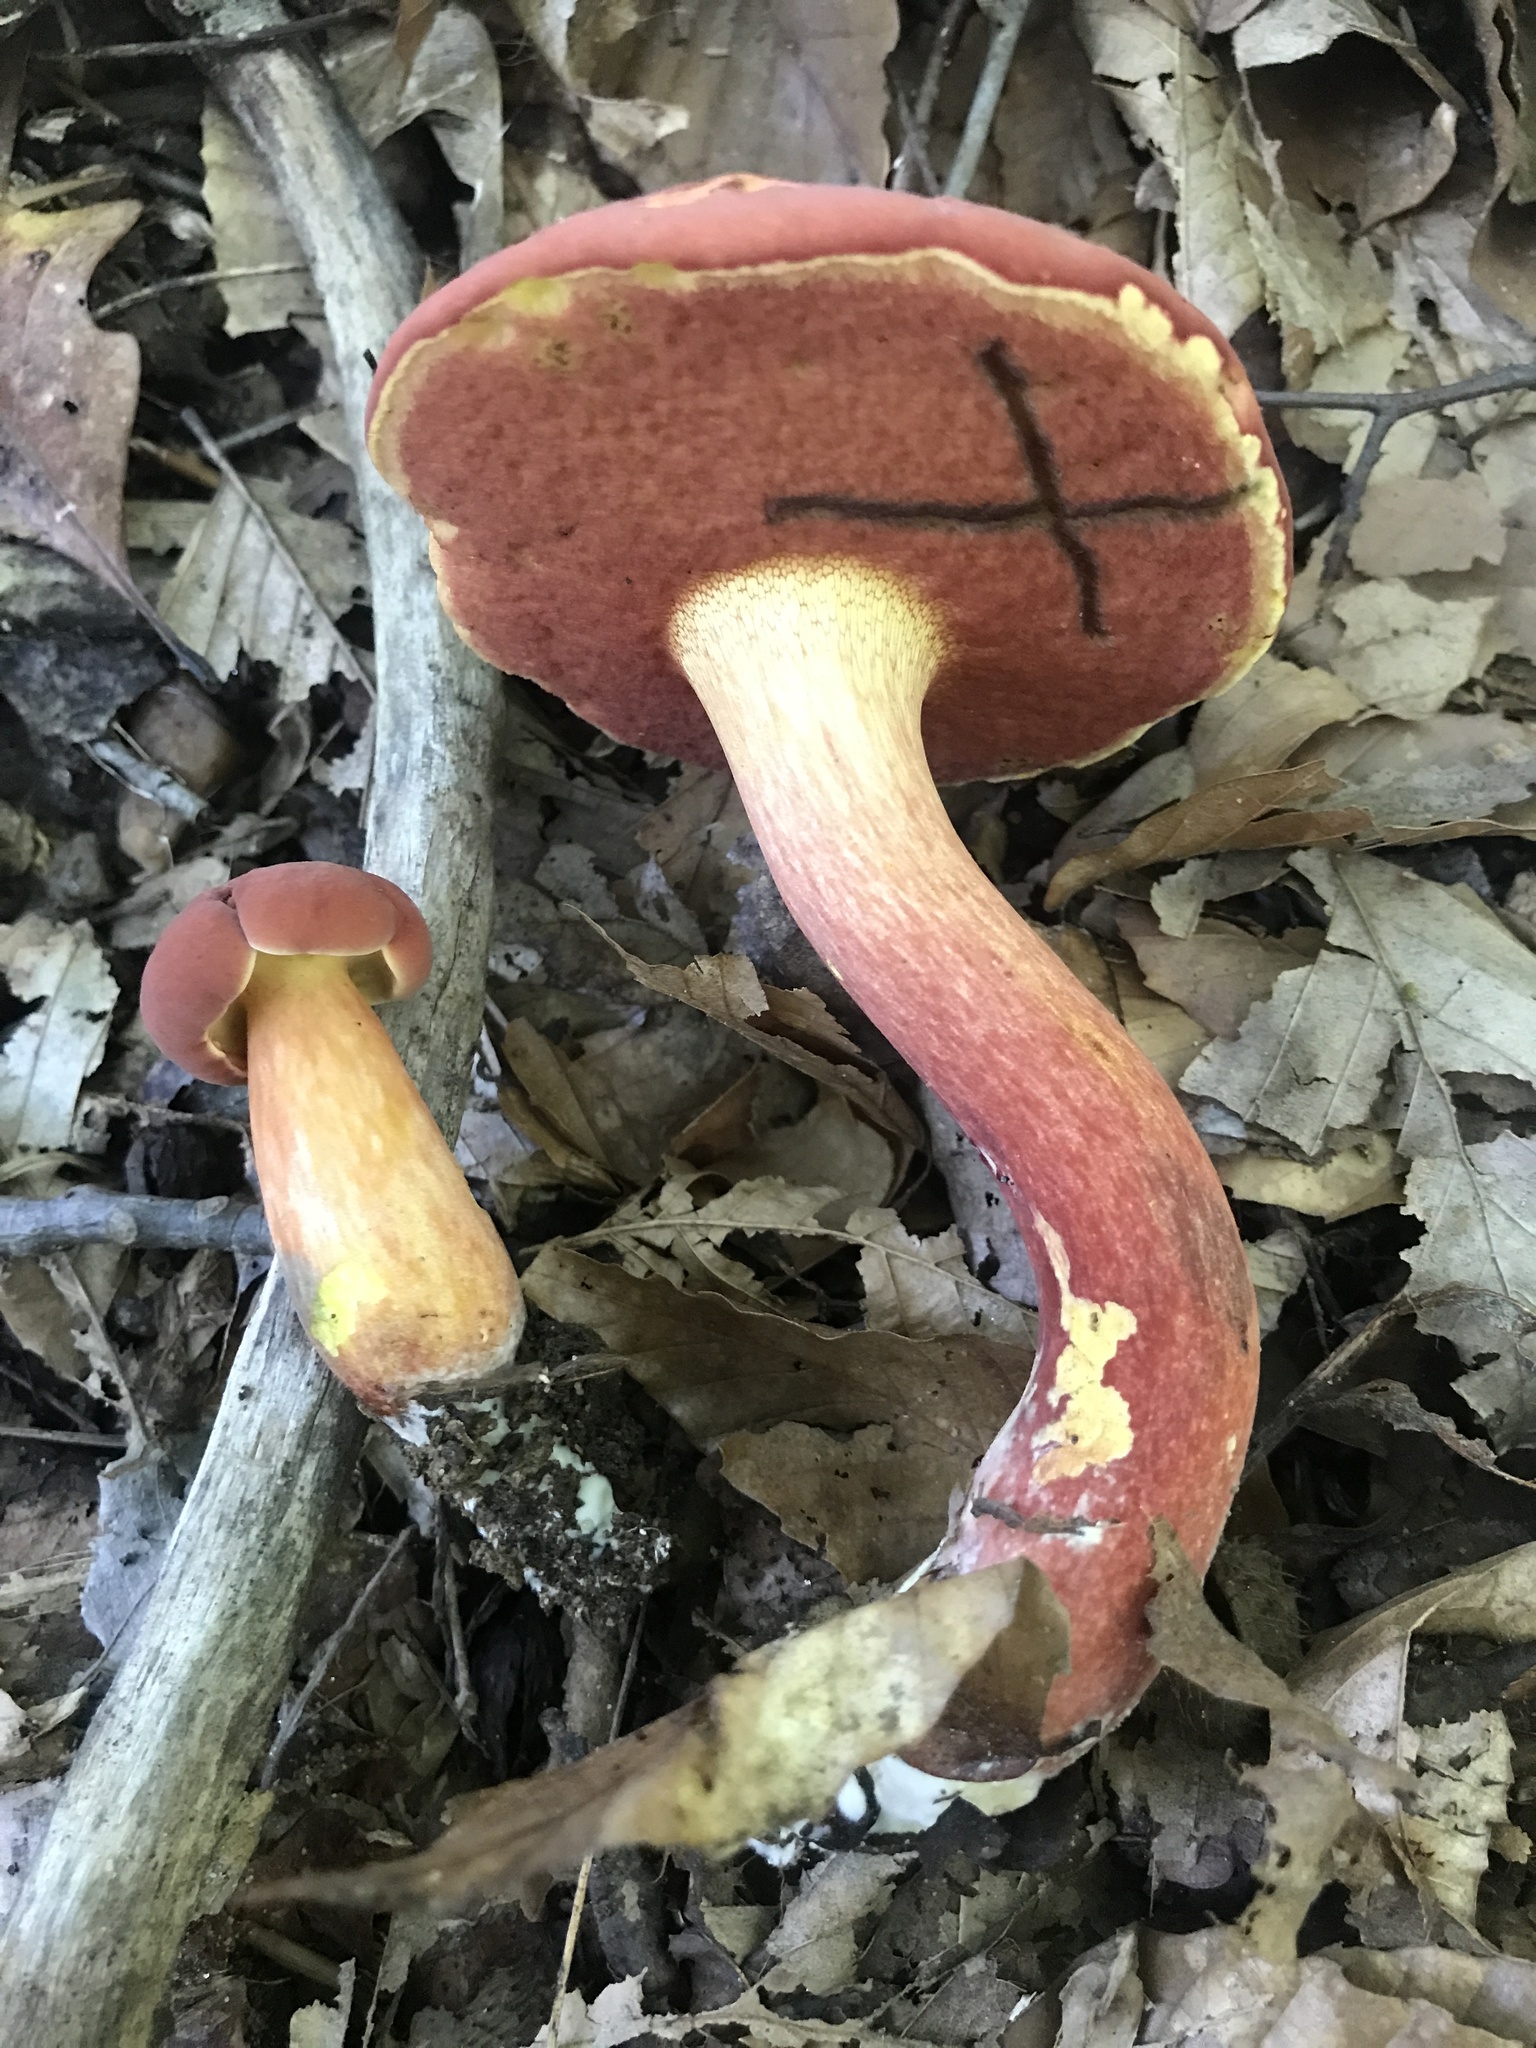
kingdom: Fungi
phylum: Basidiomycota
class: Agaricomycetes
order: Boletales
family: Boletaceae
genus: Boletus
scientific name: Boletus carminiporus
